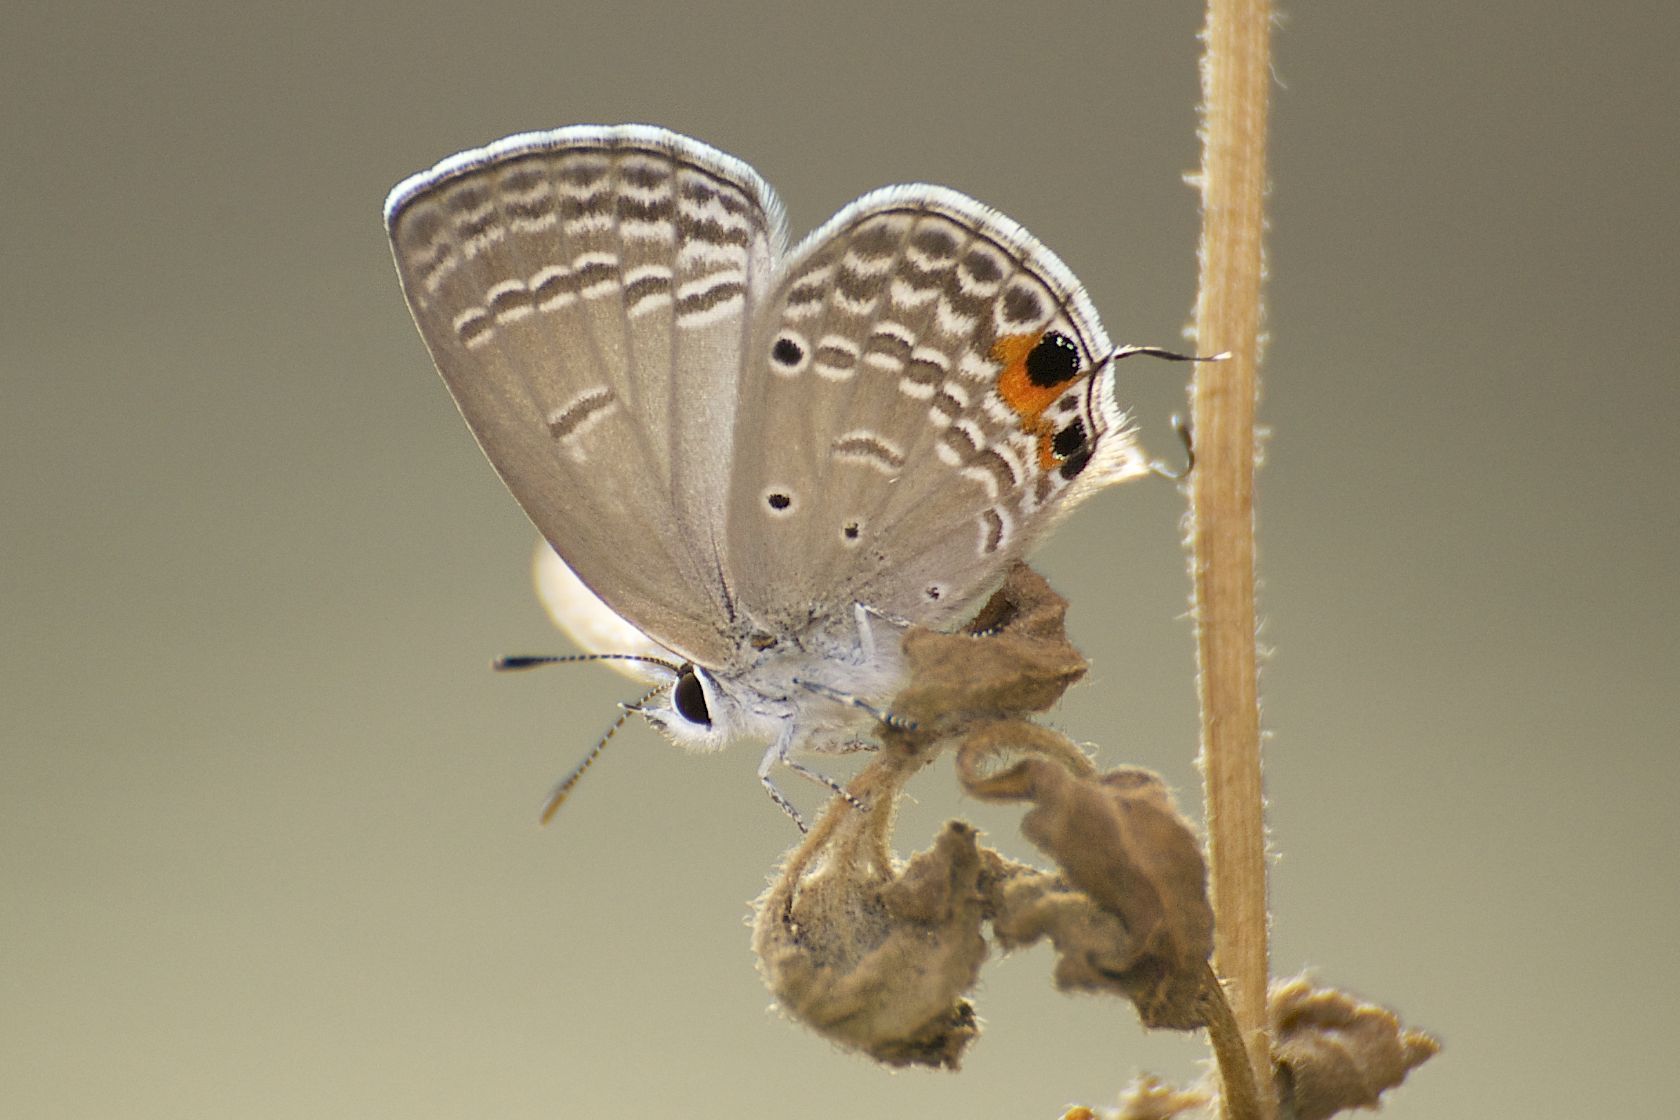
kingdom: Animalia
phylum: Arthropoda
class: Insecta
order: Lepidoptera
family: Lycaenidae
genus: Luthrodes
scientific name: Luthrodes pandava
